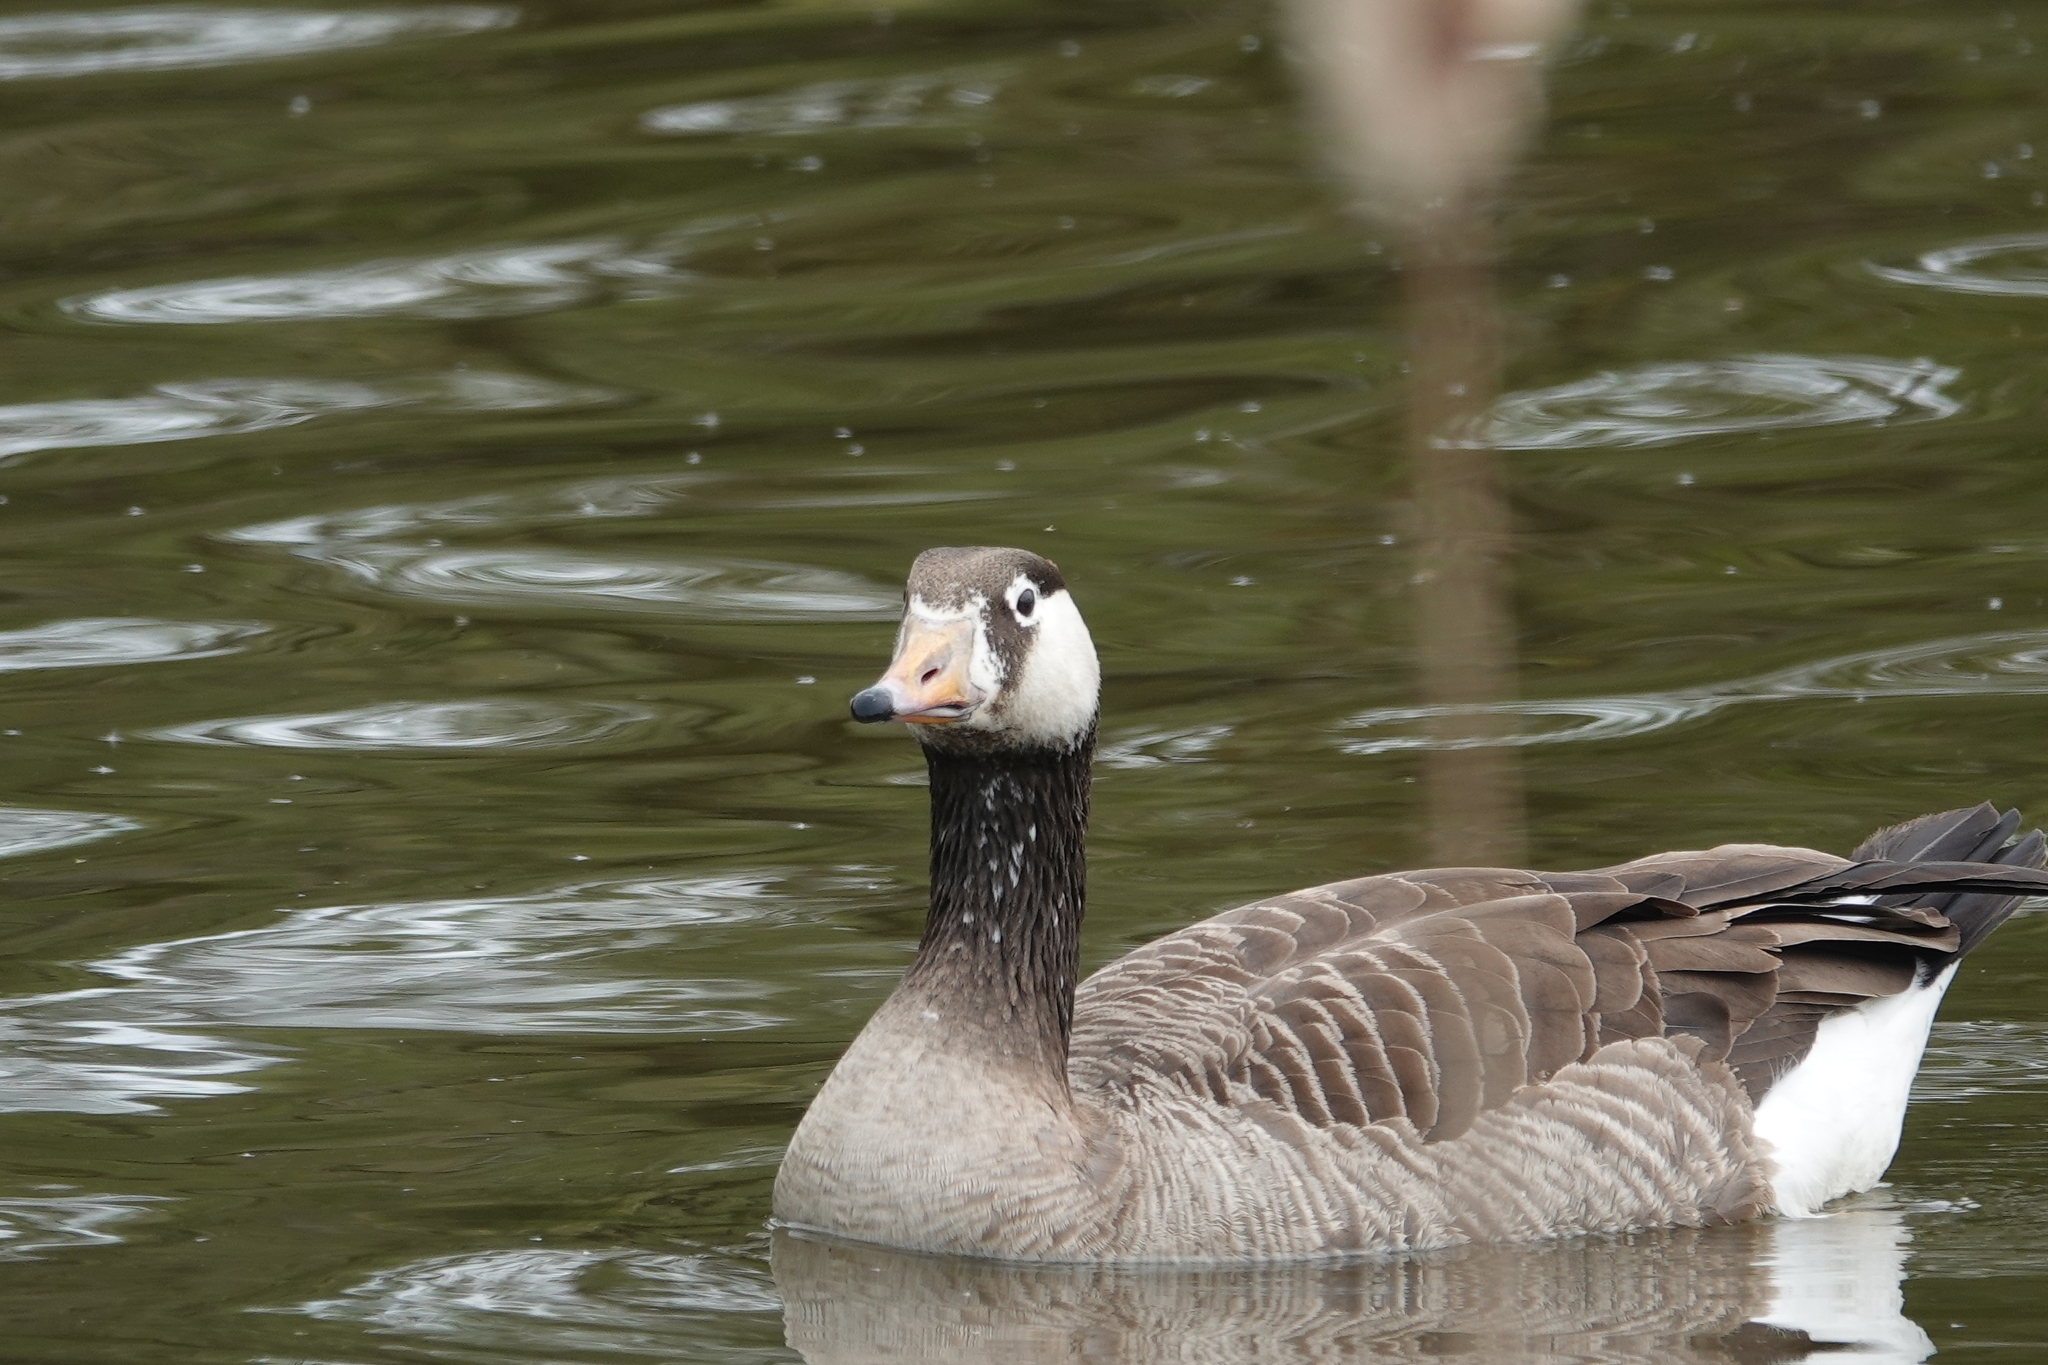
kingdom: Animalia
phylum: Chordata
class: Aves
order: Anseriformes
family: Anatidae
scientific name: Anatidae
